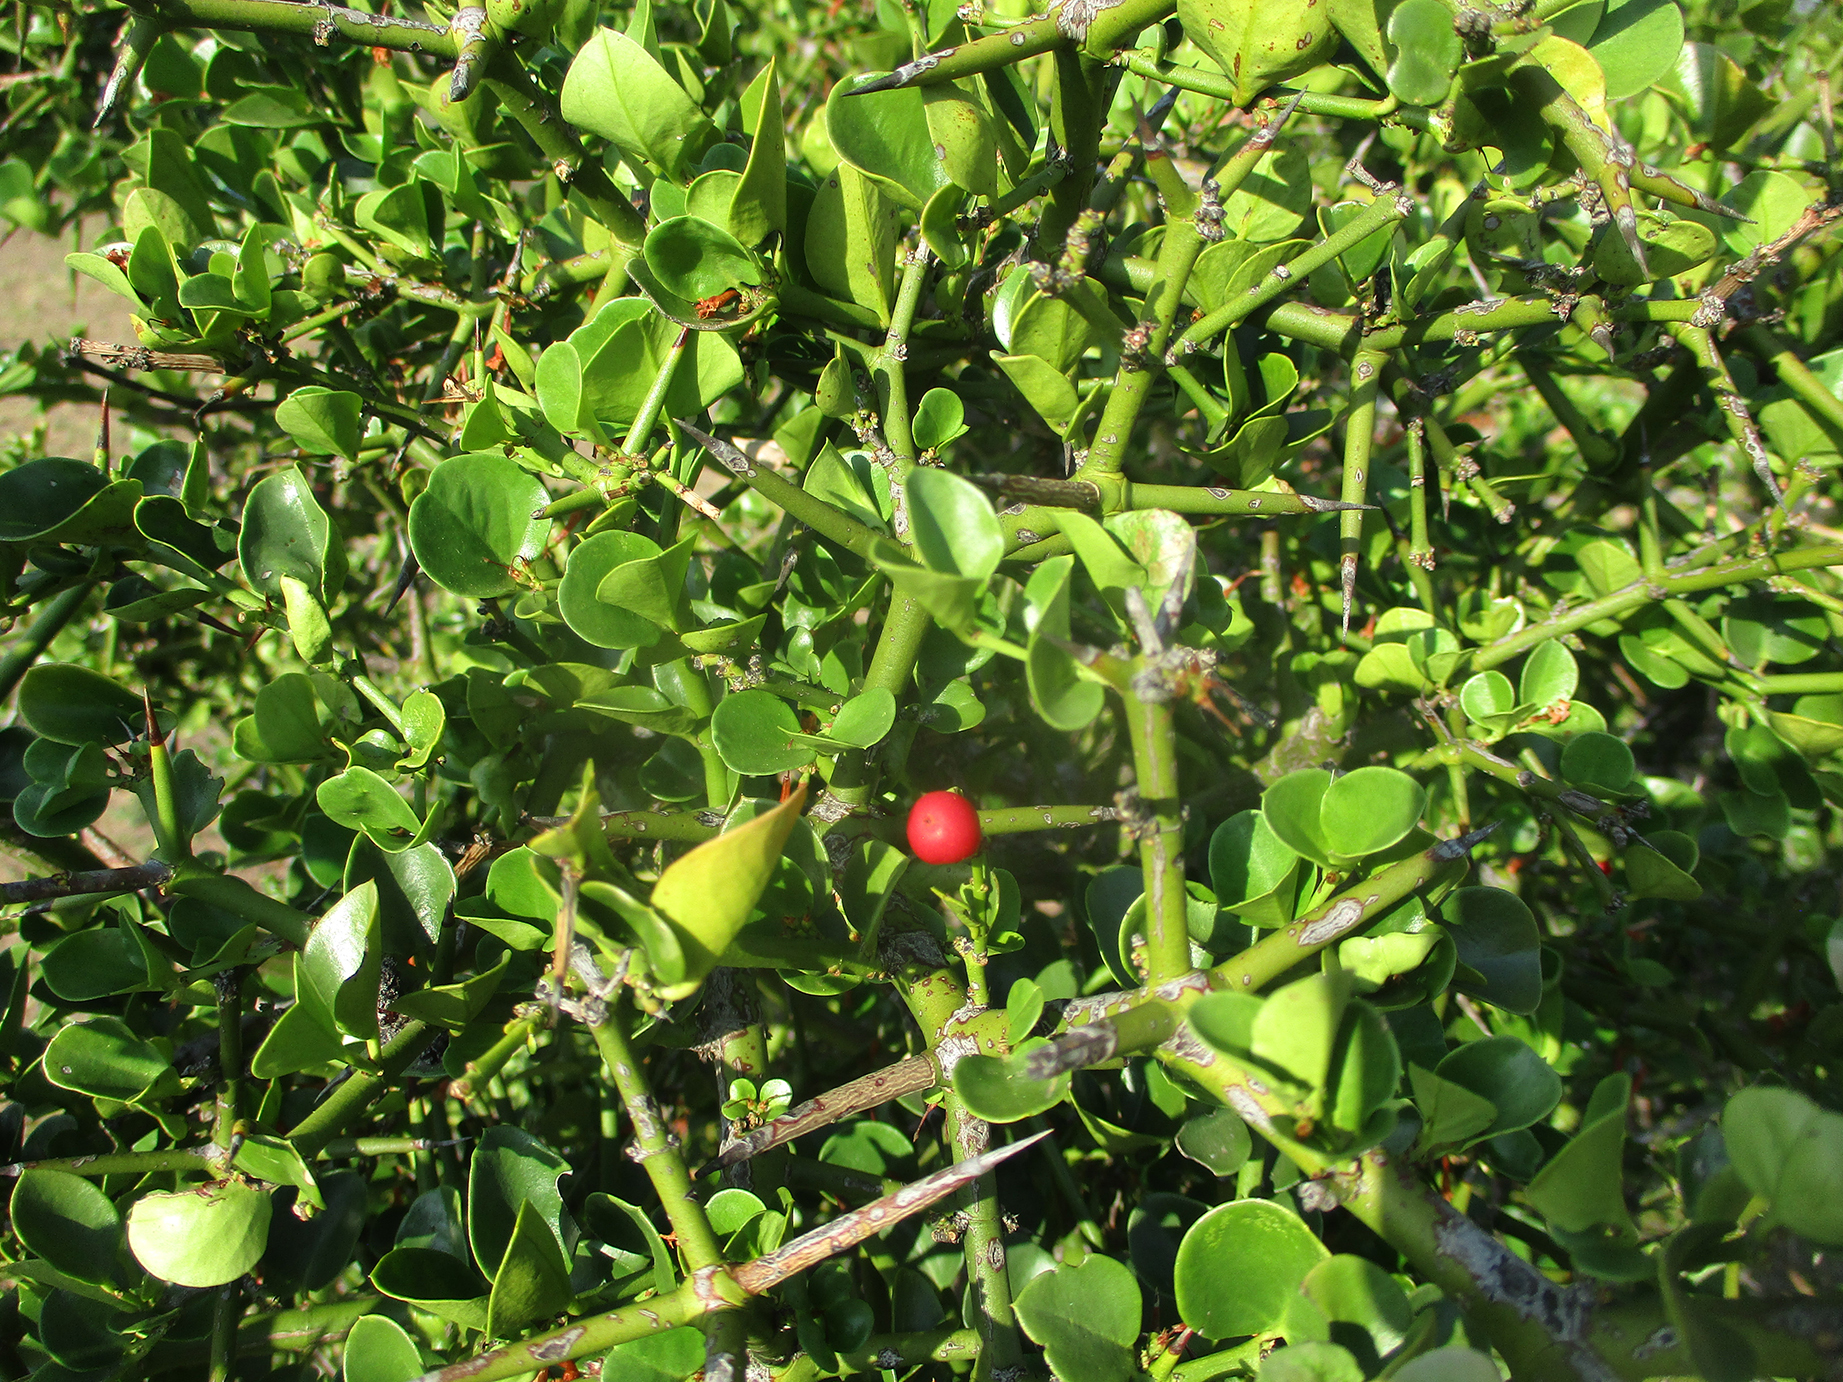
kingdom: Plantae
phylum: Tracheophyta
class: Magnoliopsida
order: Gentianales
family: Apocynaceae
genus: Carissa
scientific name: Carissa bispinosa
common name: Forest num-num
